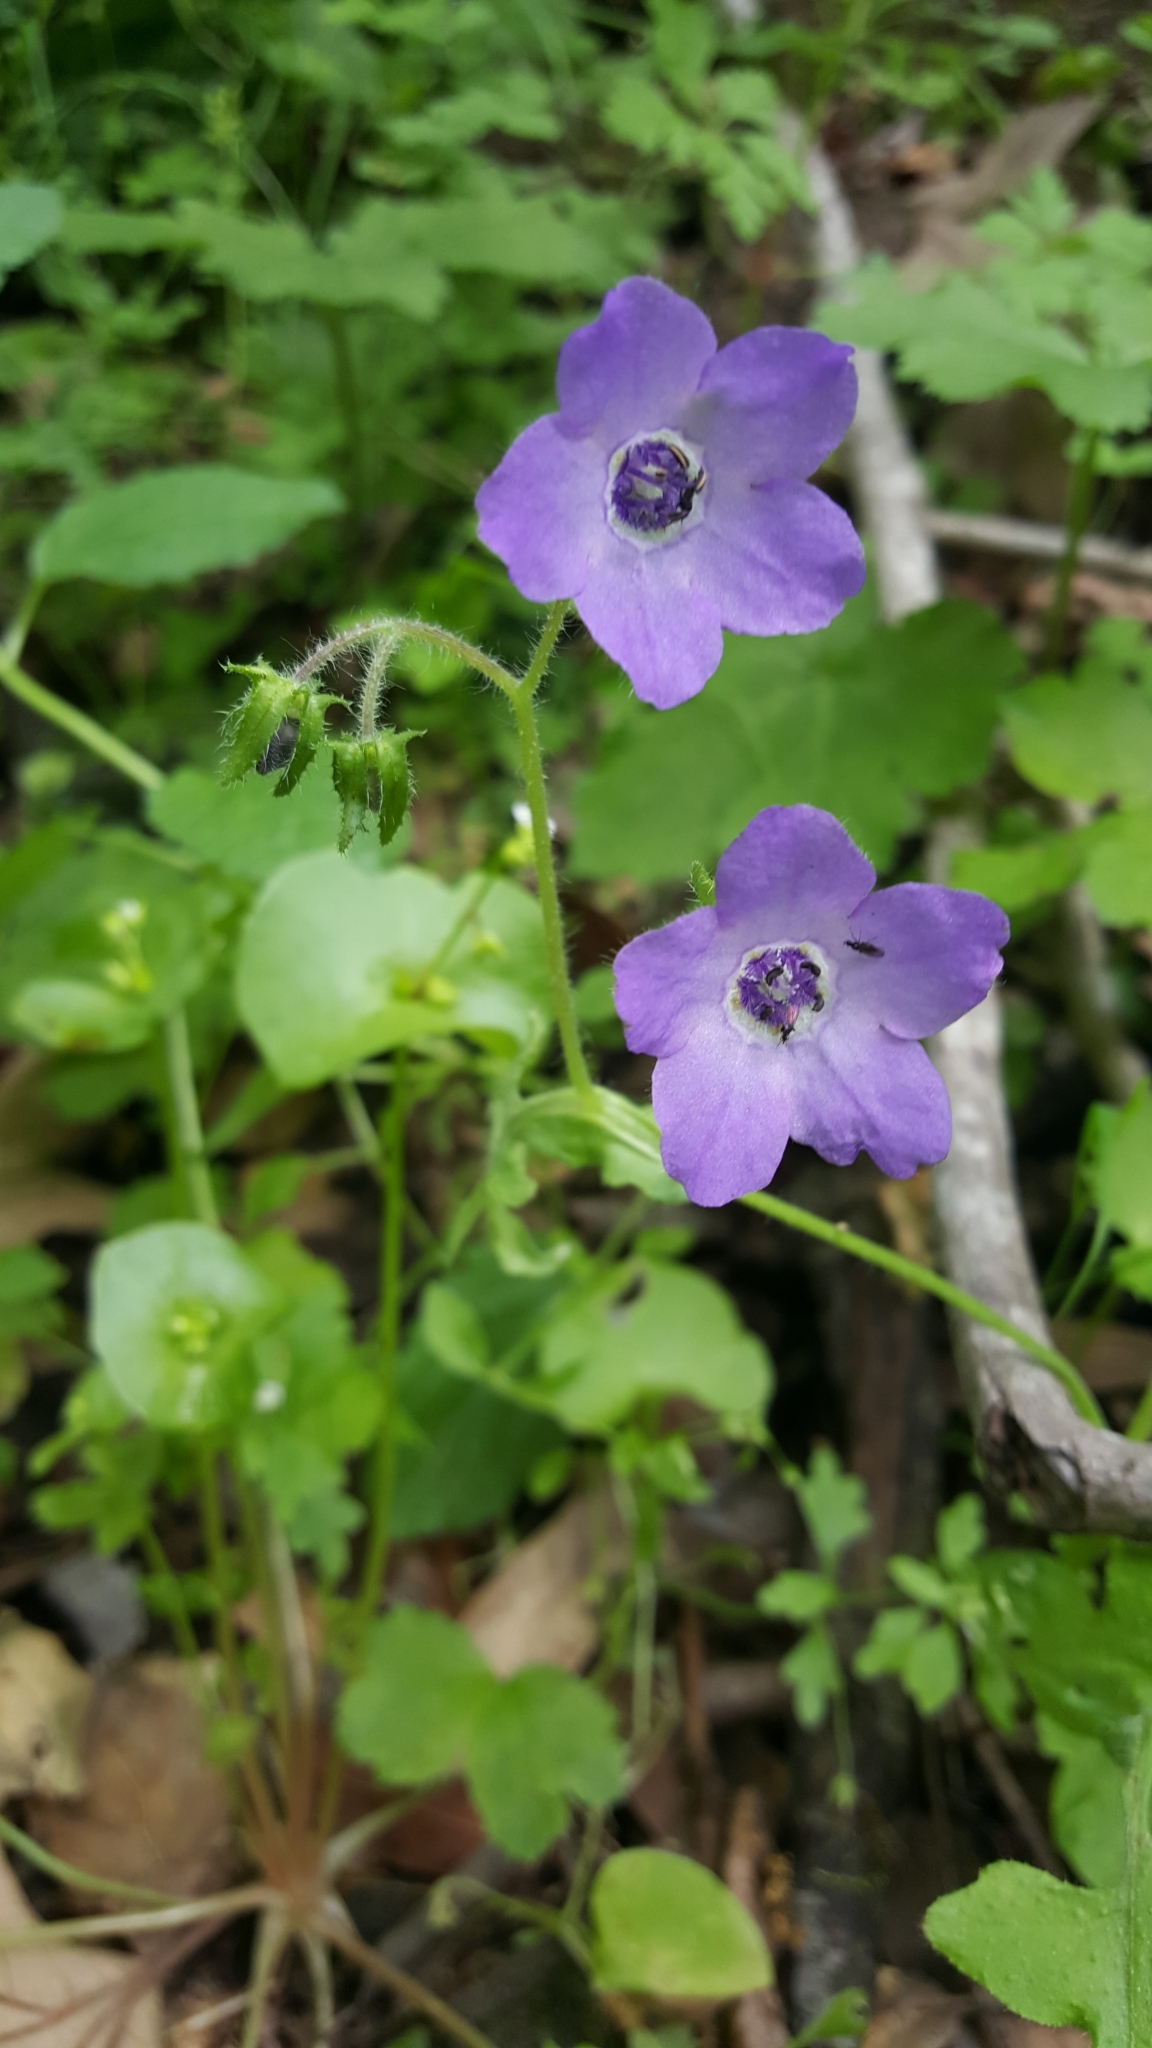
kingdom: Plantae
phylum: Tracheophyta
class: Magnoliopsida
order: Boraginales
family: Hydrophyllaceae
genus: Pholistoma
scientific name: Pholistoma auritum
